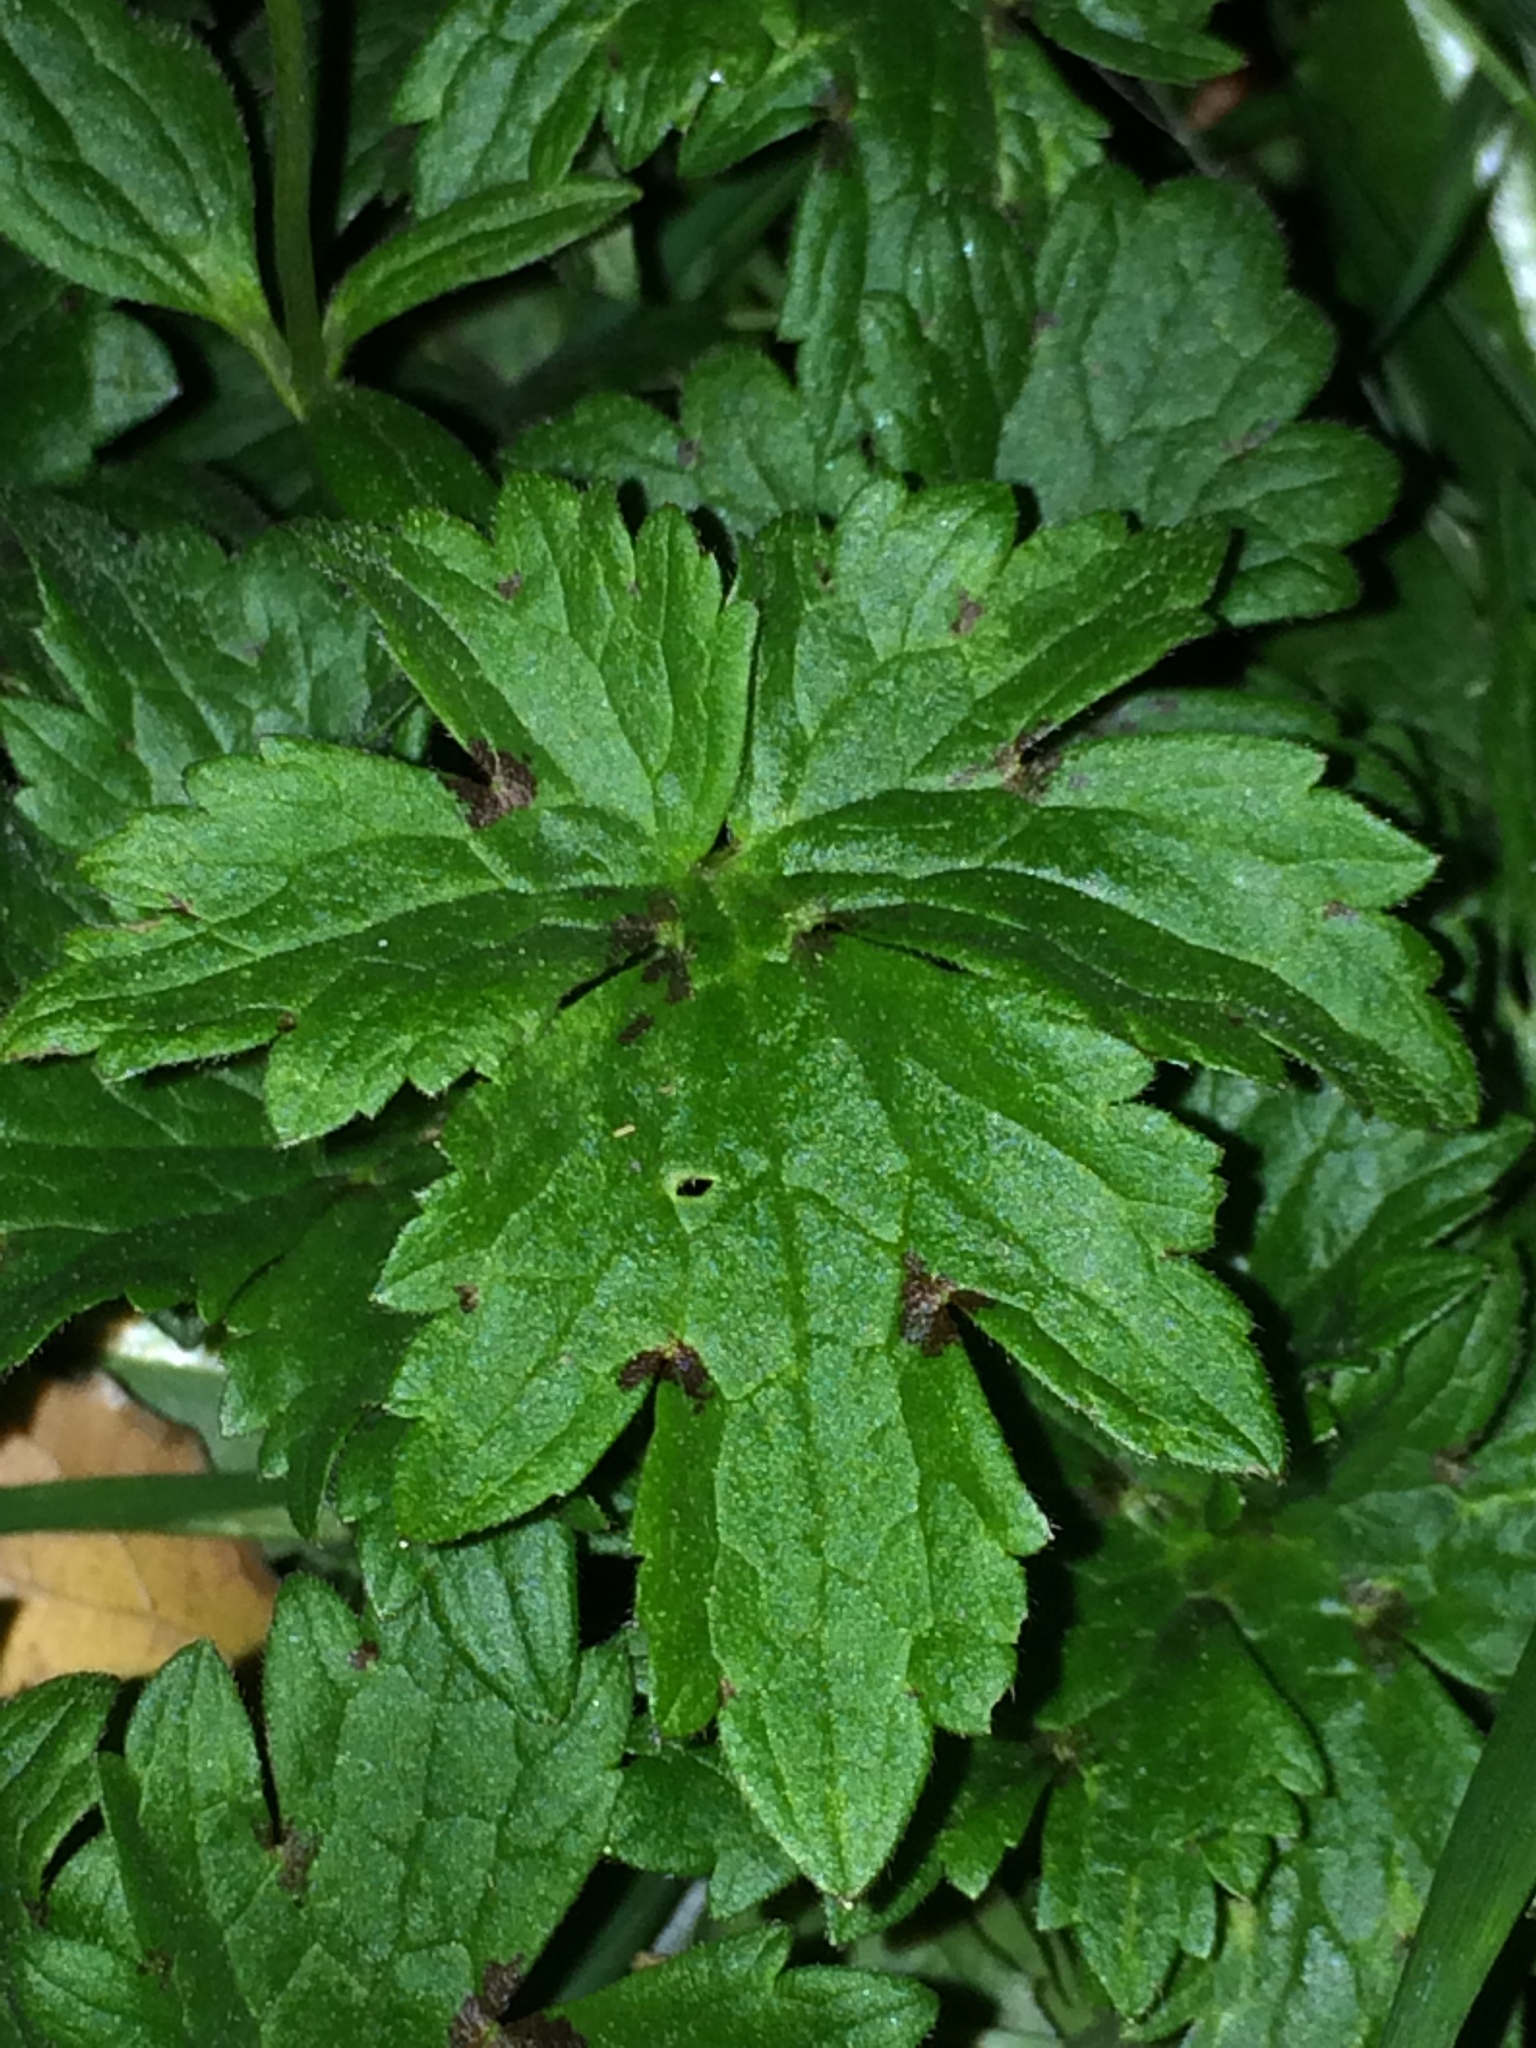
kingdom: Plantae
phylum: Tracheophyta
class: Magnoliopsida
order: Ranunculales
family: Ranunculaceae
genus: Ranunculus
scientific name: Ranunculus repens
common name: Creeping buttercup
